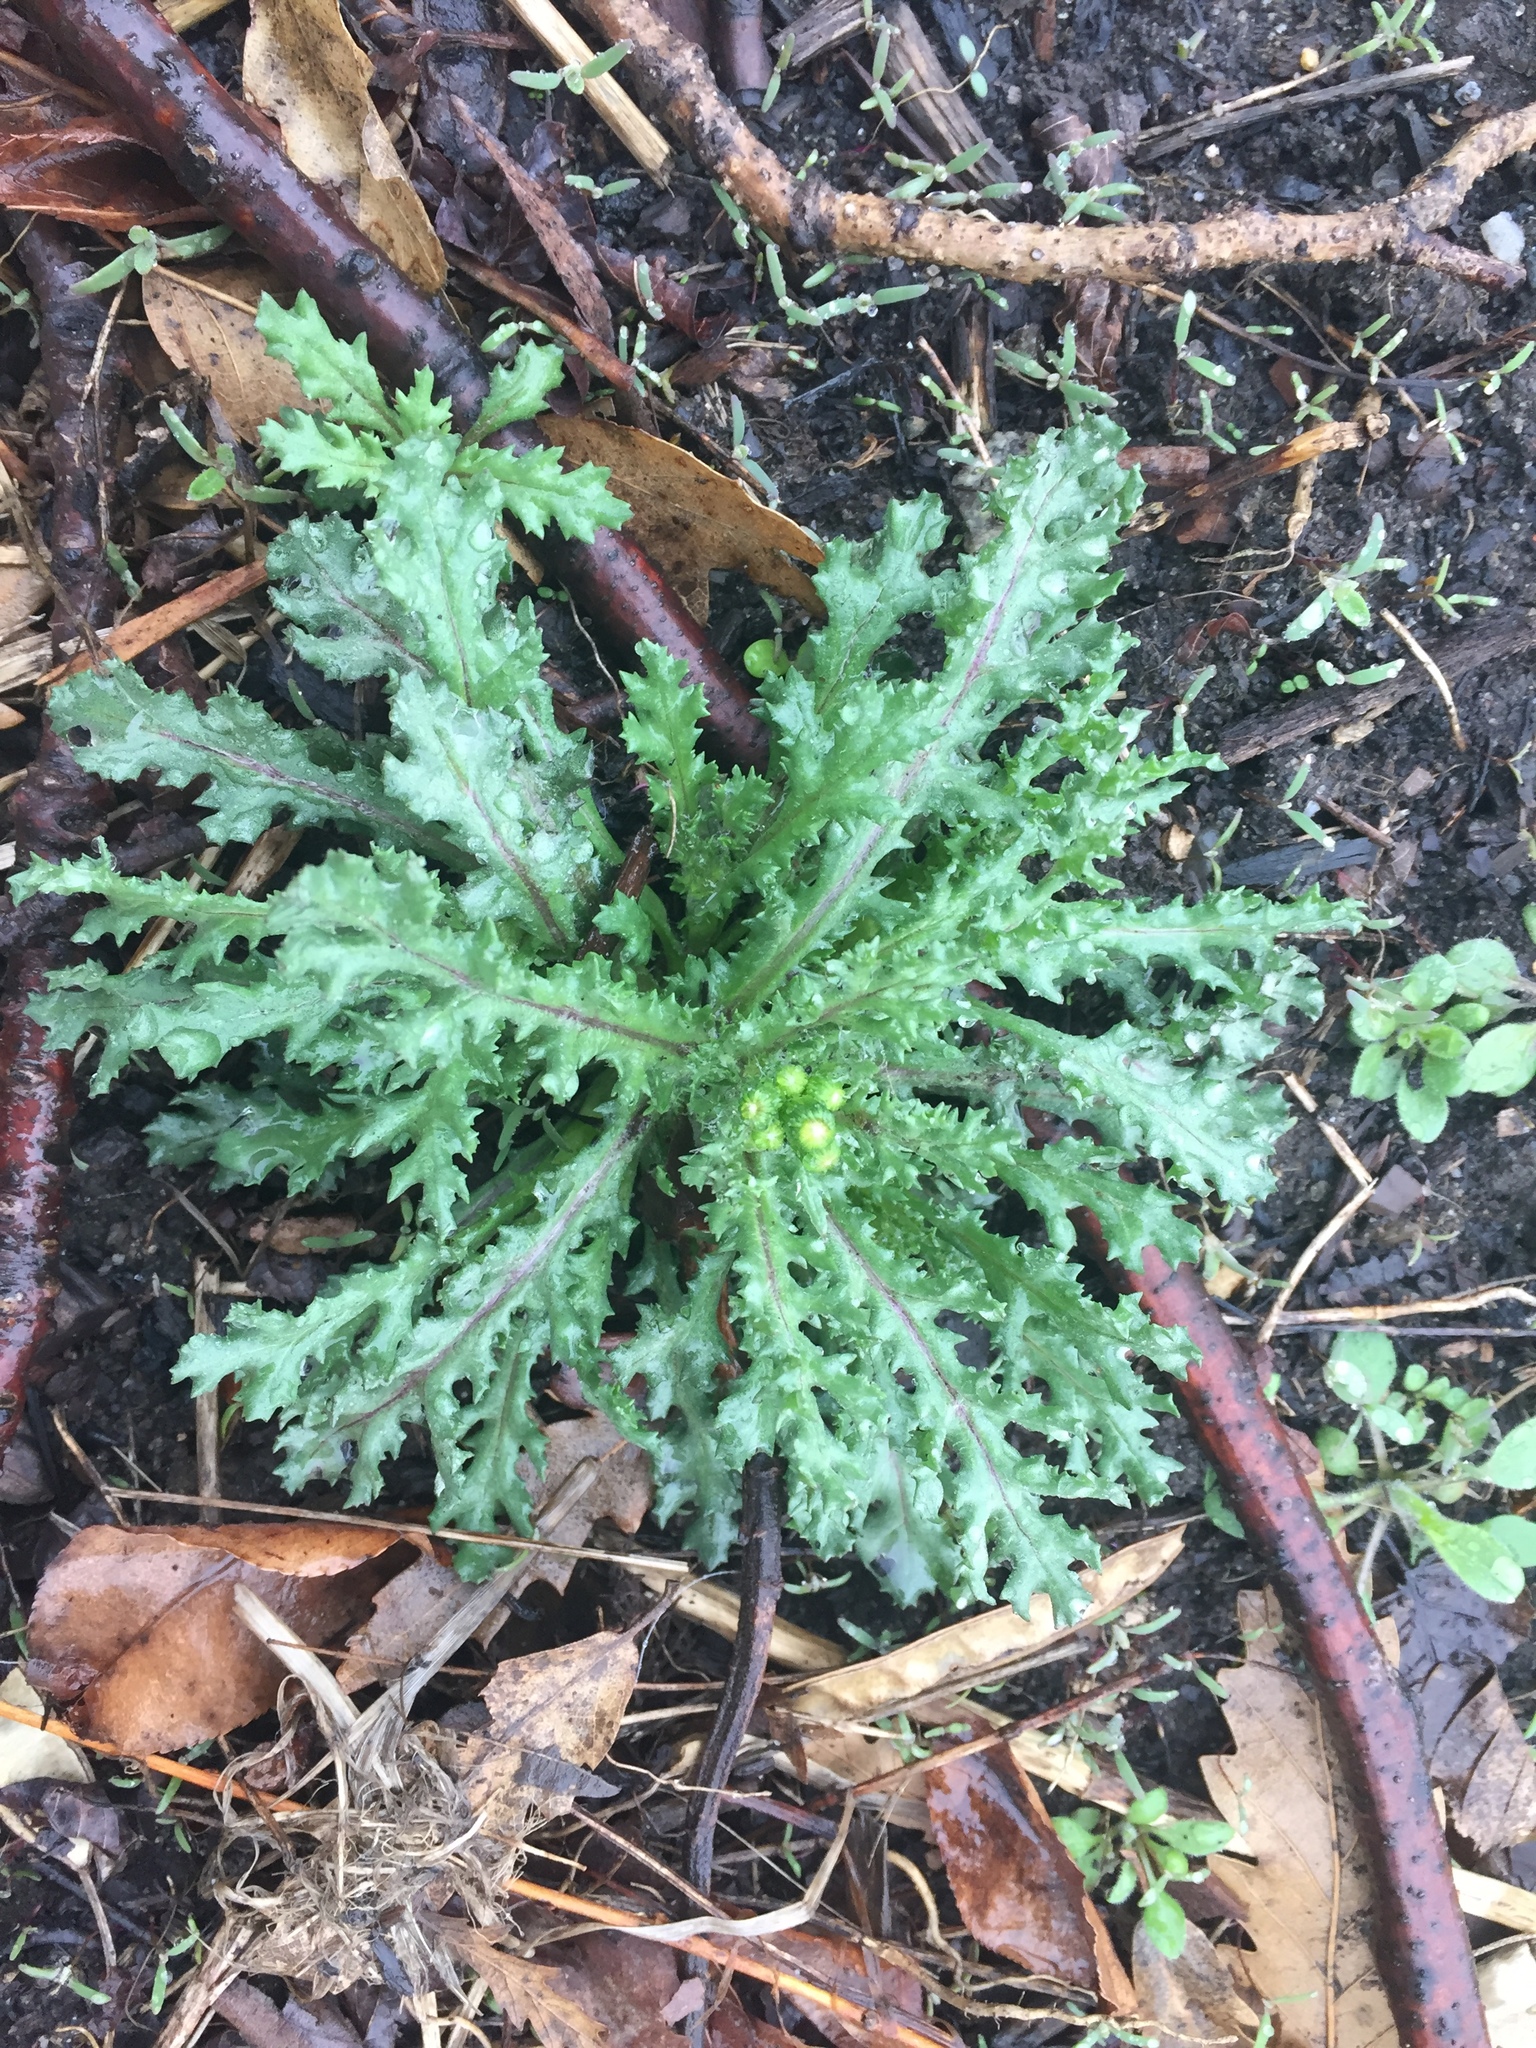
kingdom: Plantae
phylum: Tracheophyta
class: Magnoliopsida
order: Asterales
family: Asteraceae
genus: Senecio
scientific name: Senecio vulgaris
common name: Old-man-in-the-spring
